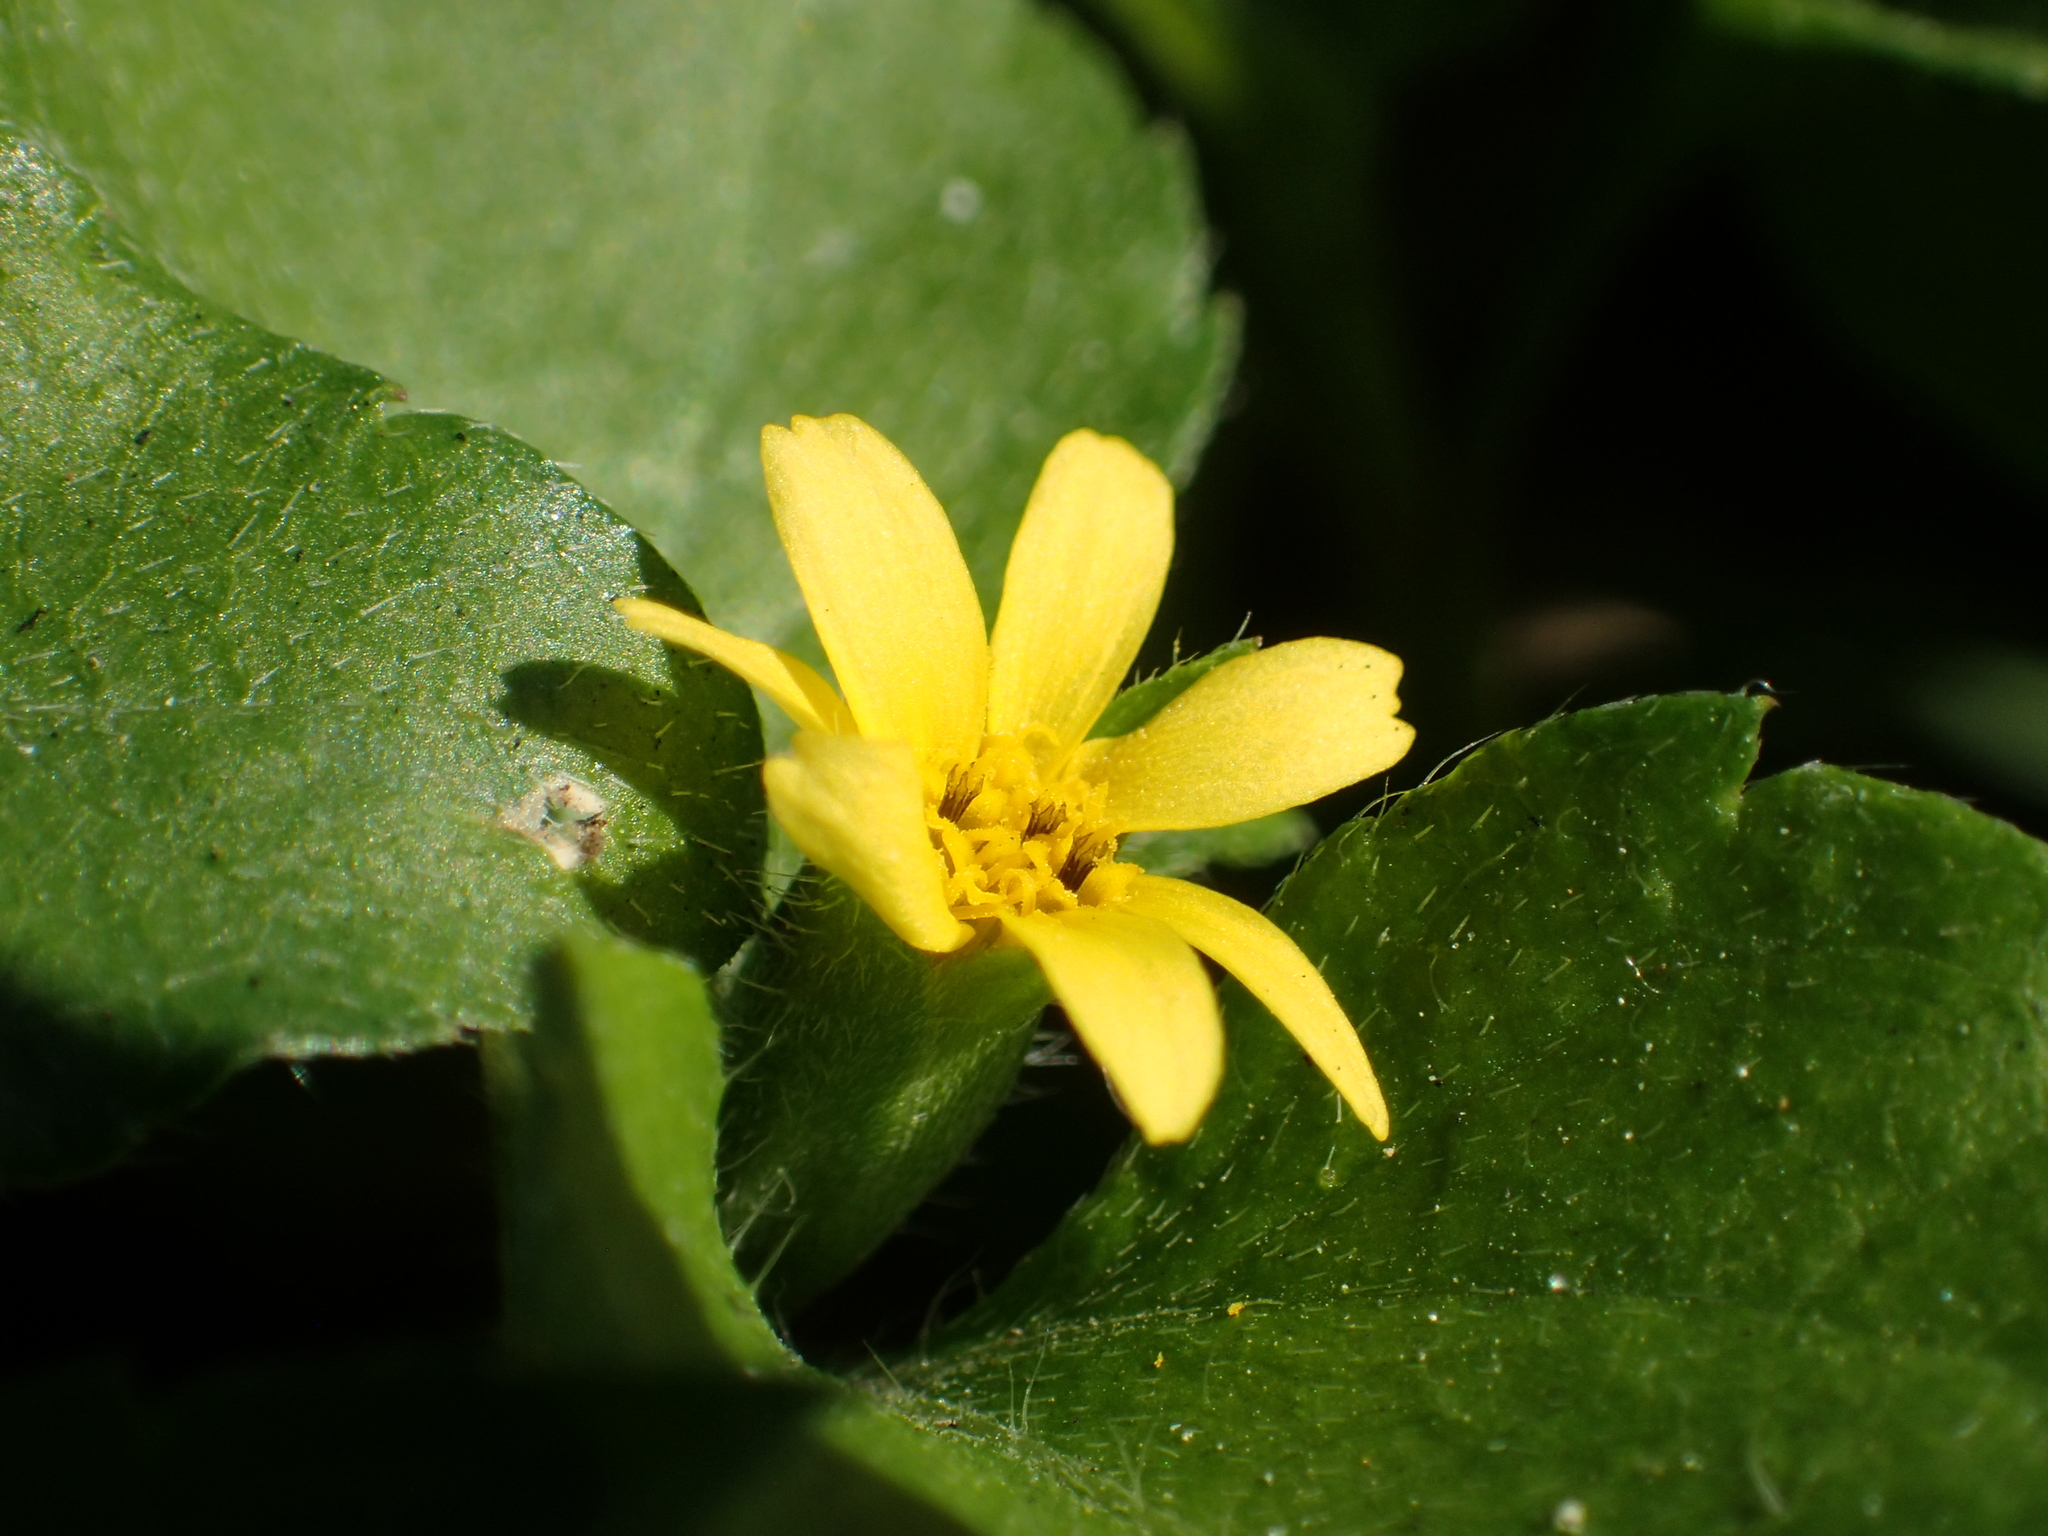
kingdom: Plantae
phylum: Tracheophyta
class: Magnoliopsida
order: Asterales
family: Asteraceae
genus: Calyptocarpus
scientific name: Calyptocarpus vialis
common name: Straggler daisy
